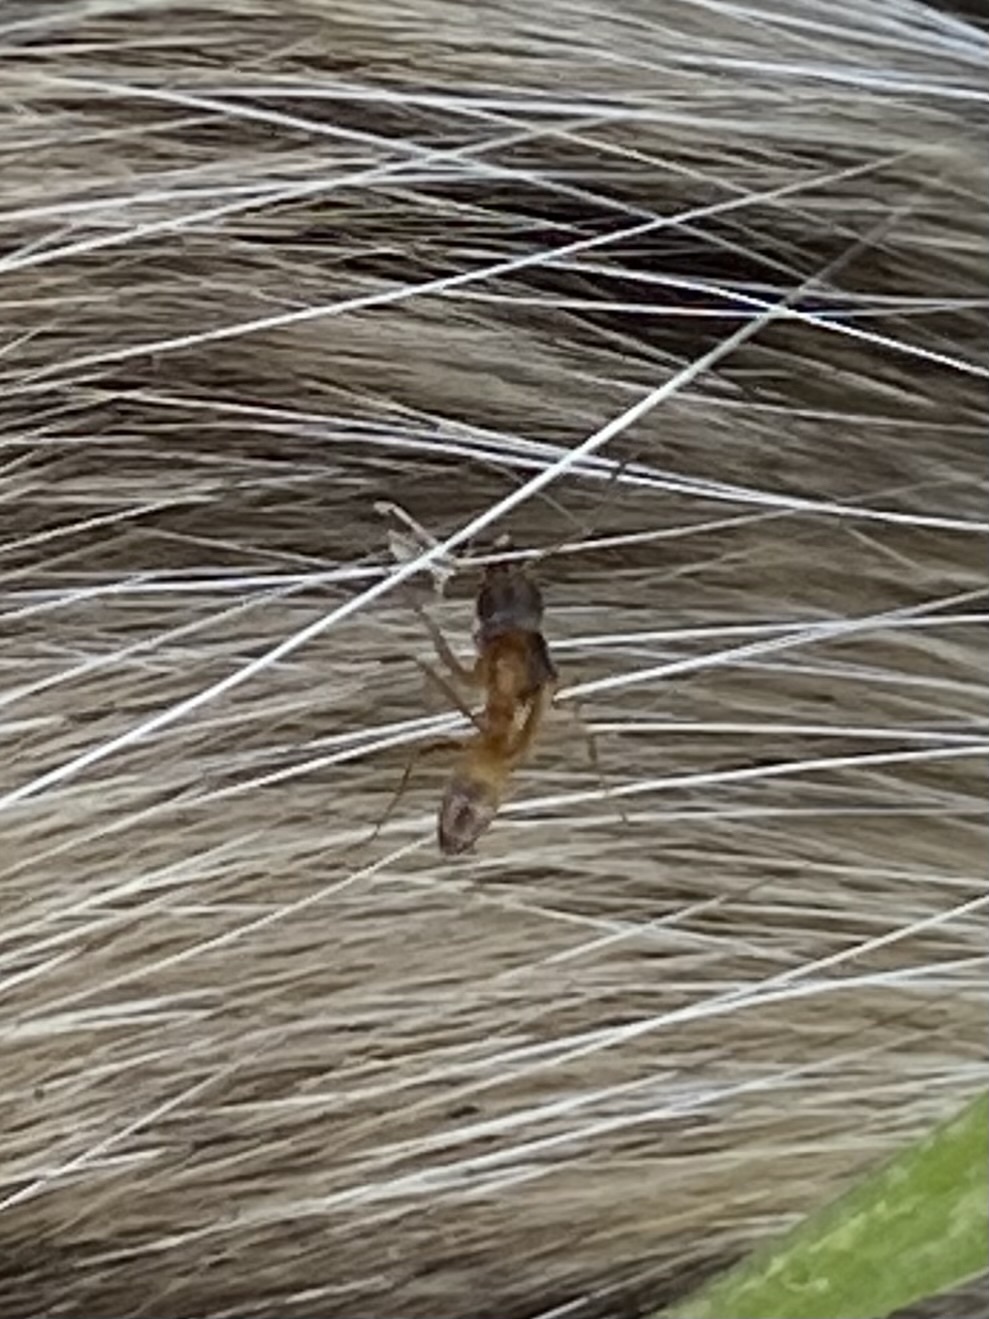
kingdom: Animalia
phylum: Arthropoda
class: Insecta
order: Hymenoptera
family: Formicidae
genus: Dorymyrmex
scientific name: Dorymyrmex flavus
